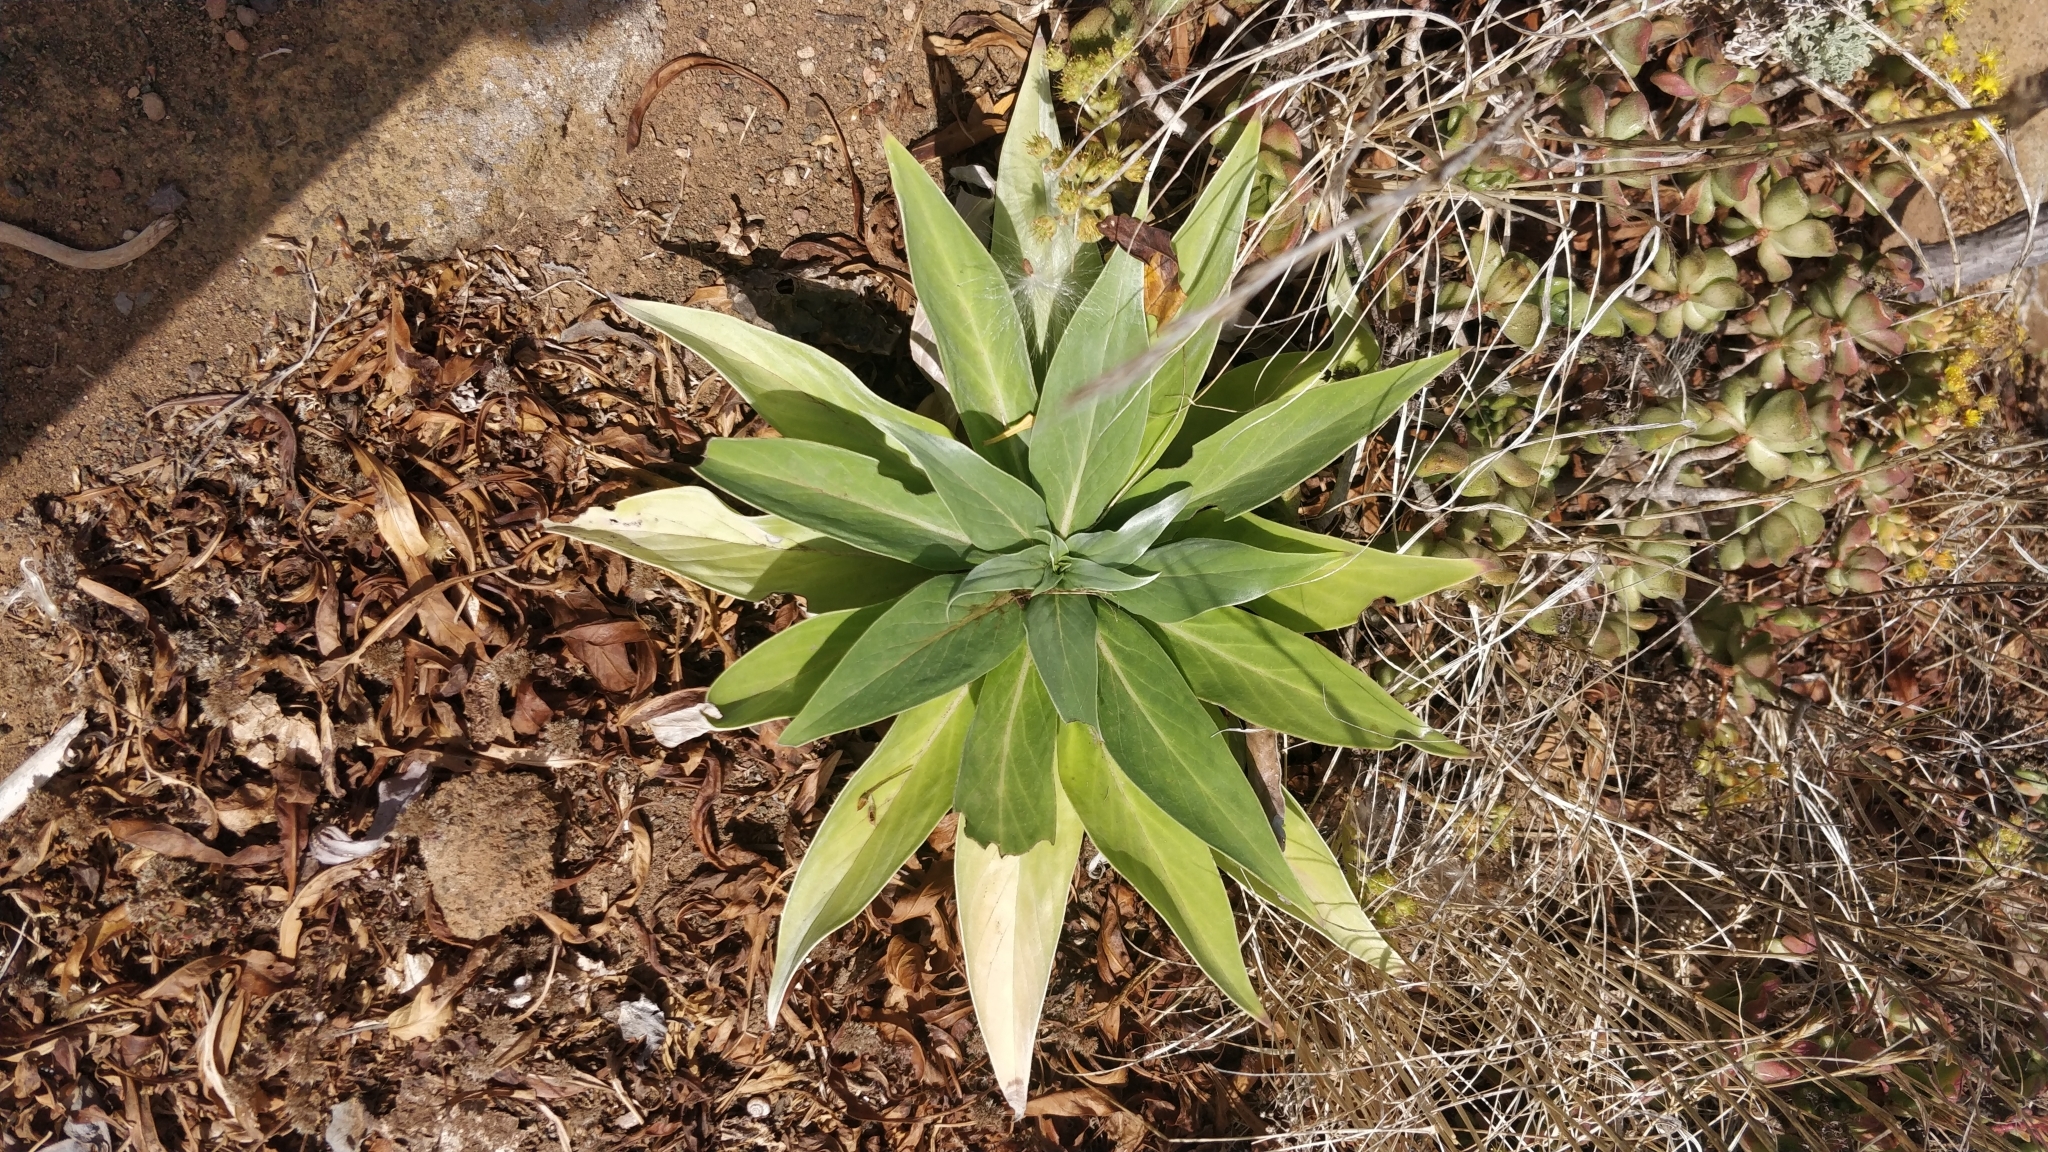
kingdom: Plantae
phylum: Tracheophyta
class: Magnoliopsida
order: Boraginales
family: Boraginaceae
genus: Echium
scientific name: Echium simplex
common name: Pride-of-tenerife
